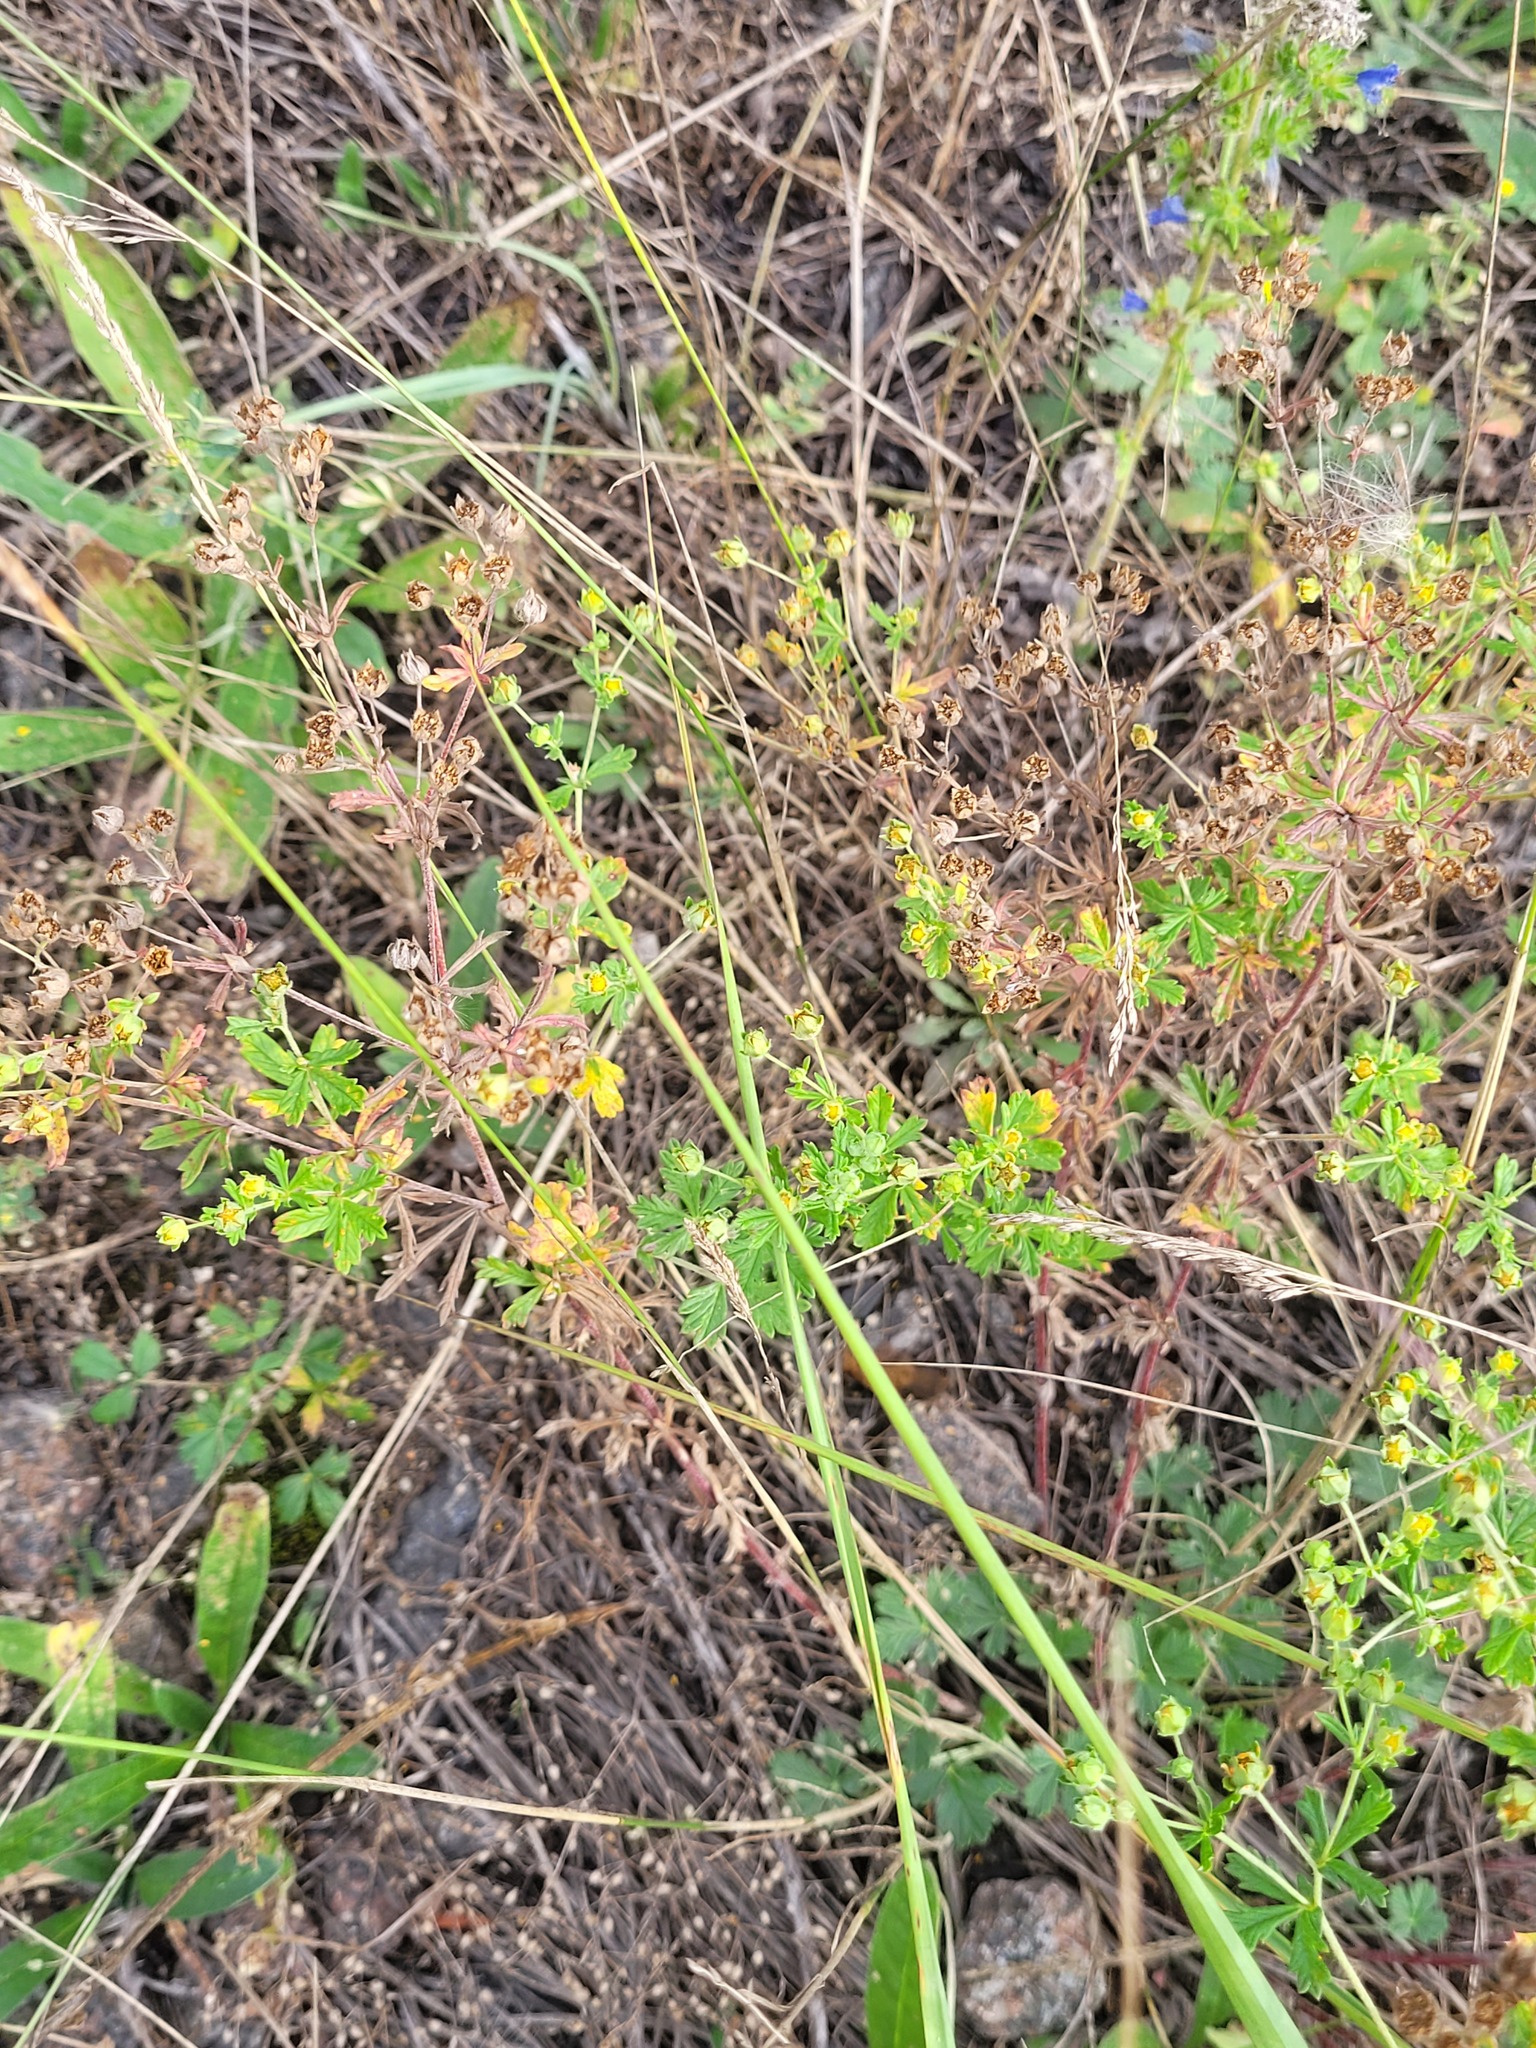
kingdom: Plantae
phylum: Tracheophyta
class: Magnoliopsida
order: Rosales
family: Rosaceae
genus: Potentilla
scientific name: Potentilla argentea
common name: Hoary cinquefoil
